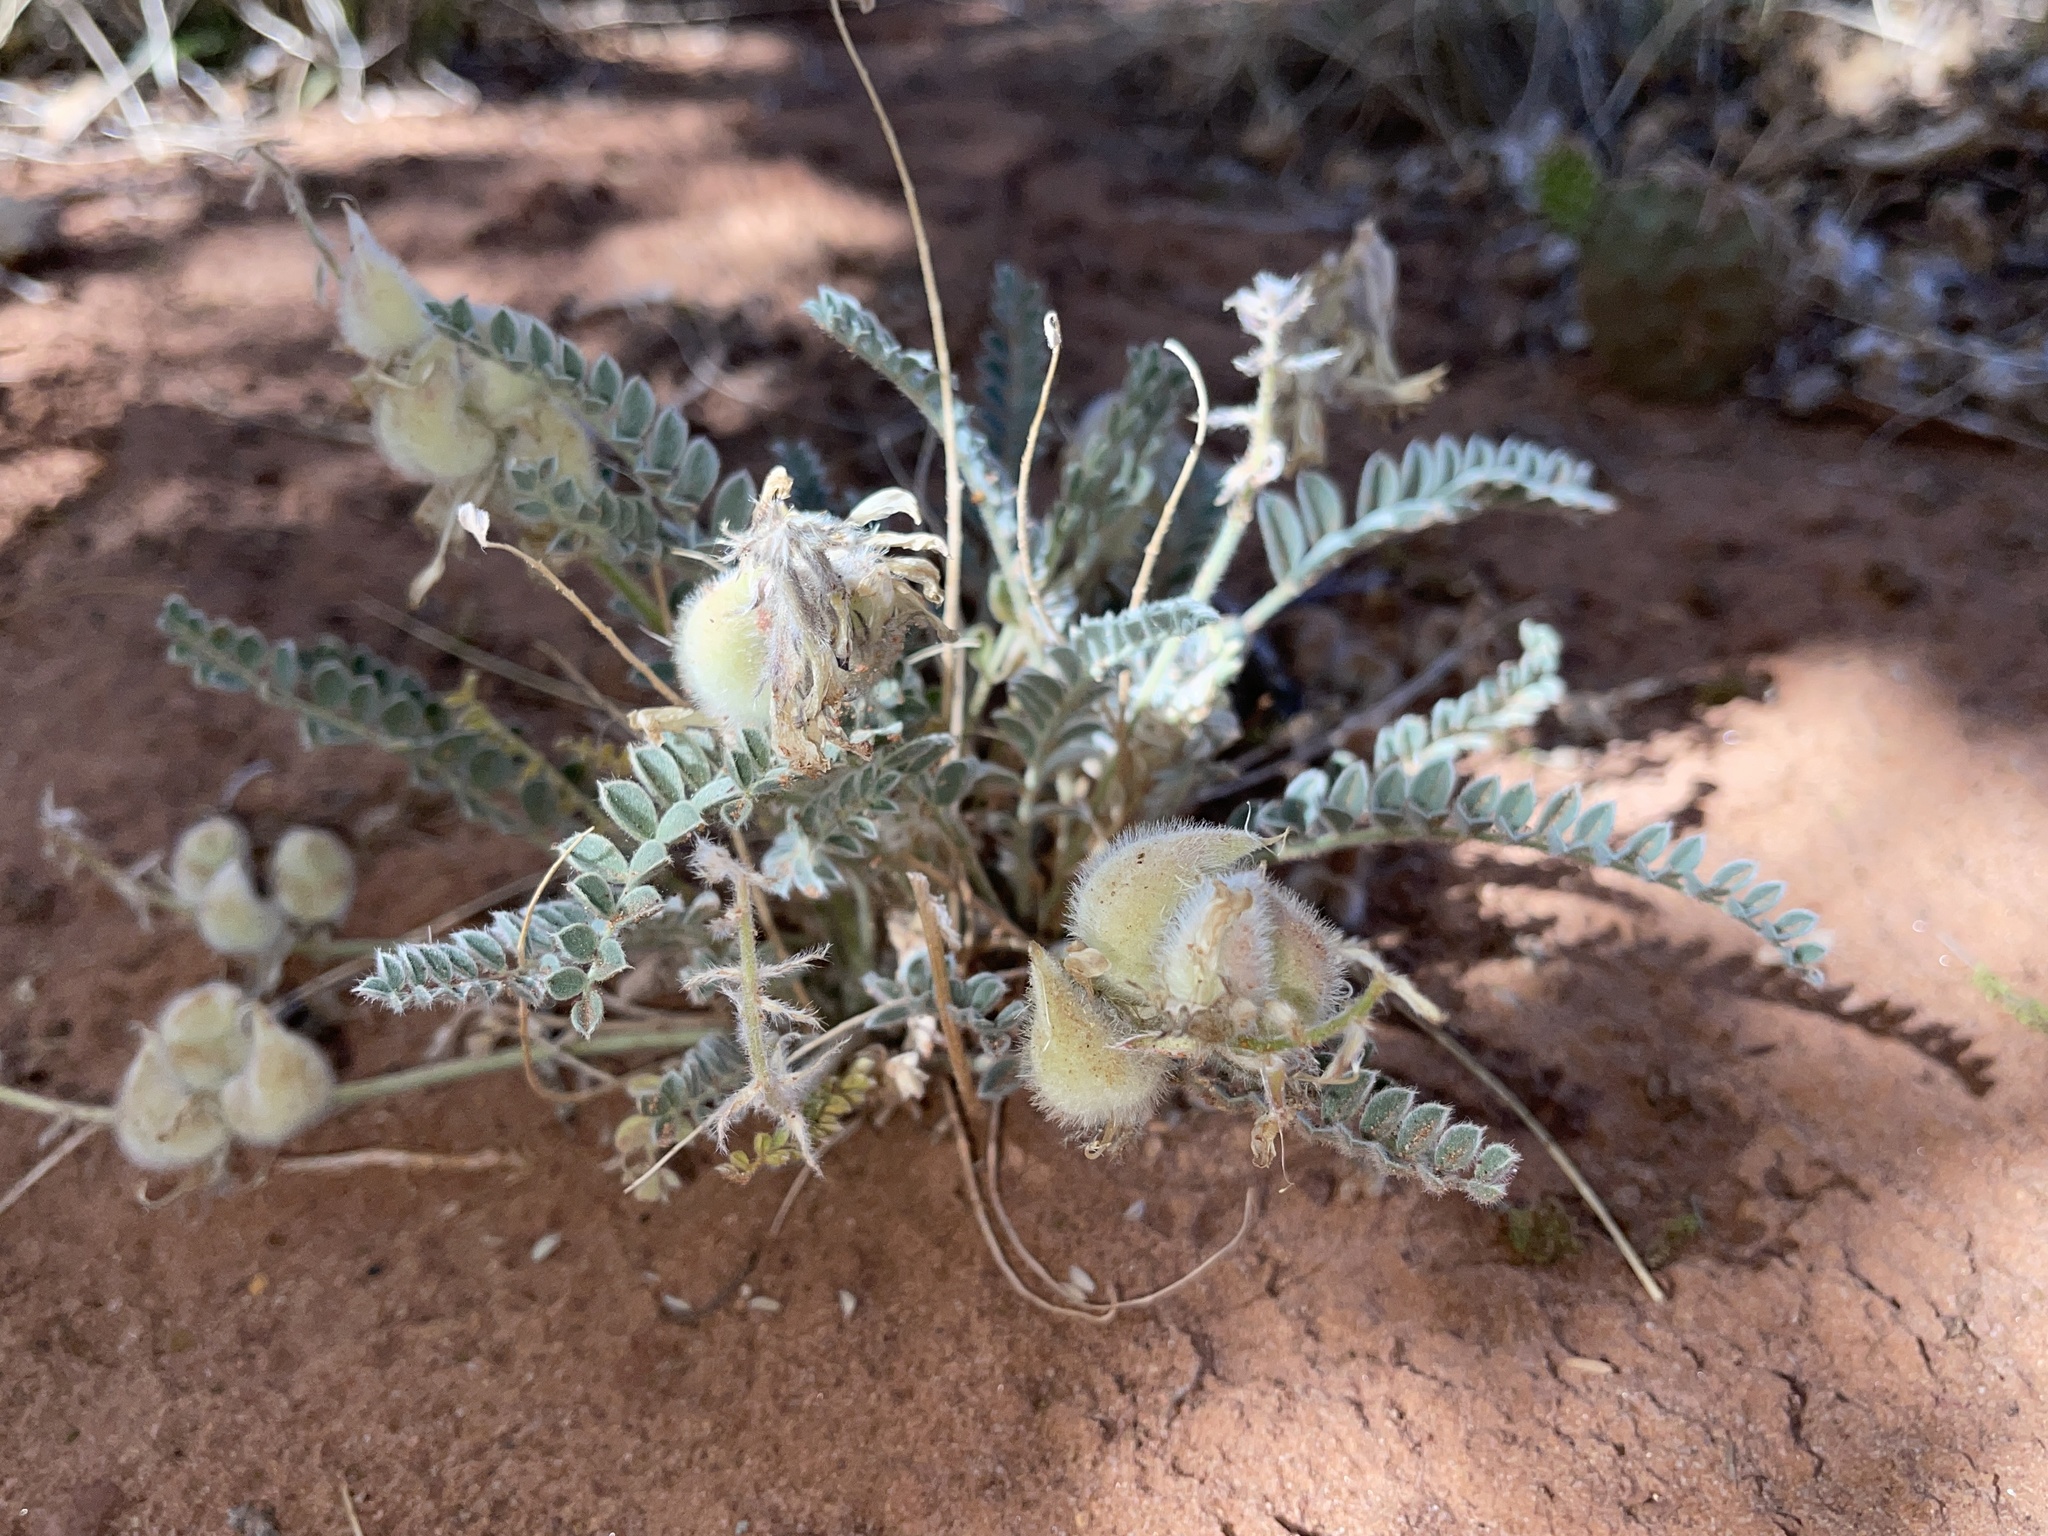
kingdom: Plantae
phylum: Tracheophyta
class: Magnoliopsida
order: Fabales
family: Fabaceae
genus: Astragalus
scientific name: Astragalus mollissimus
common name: Woolly locoweed
